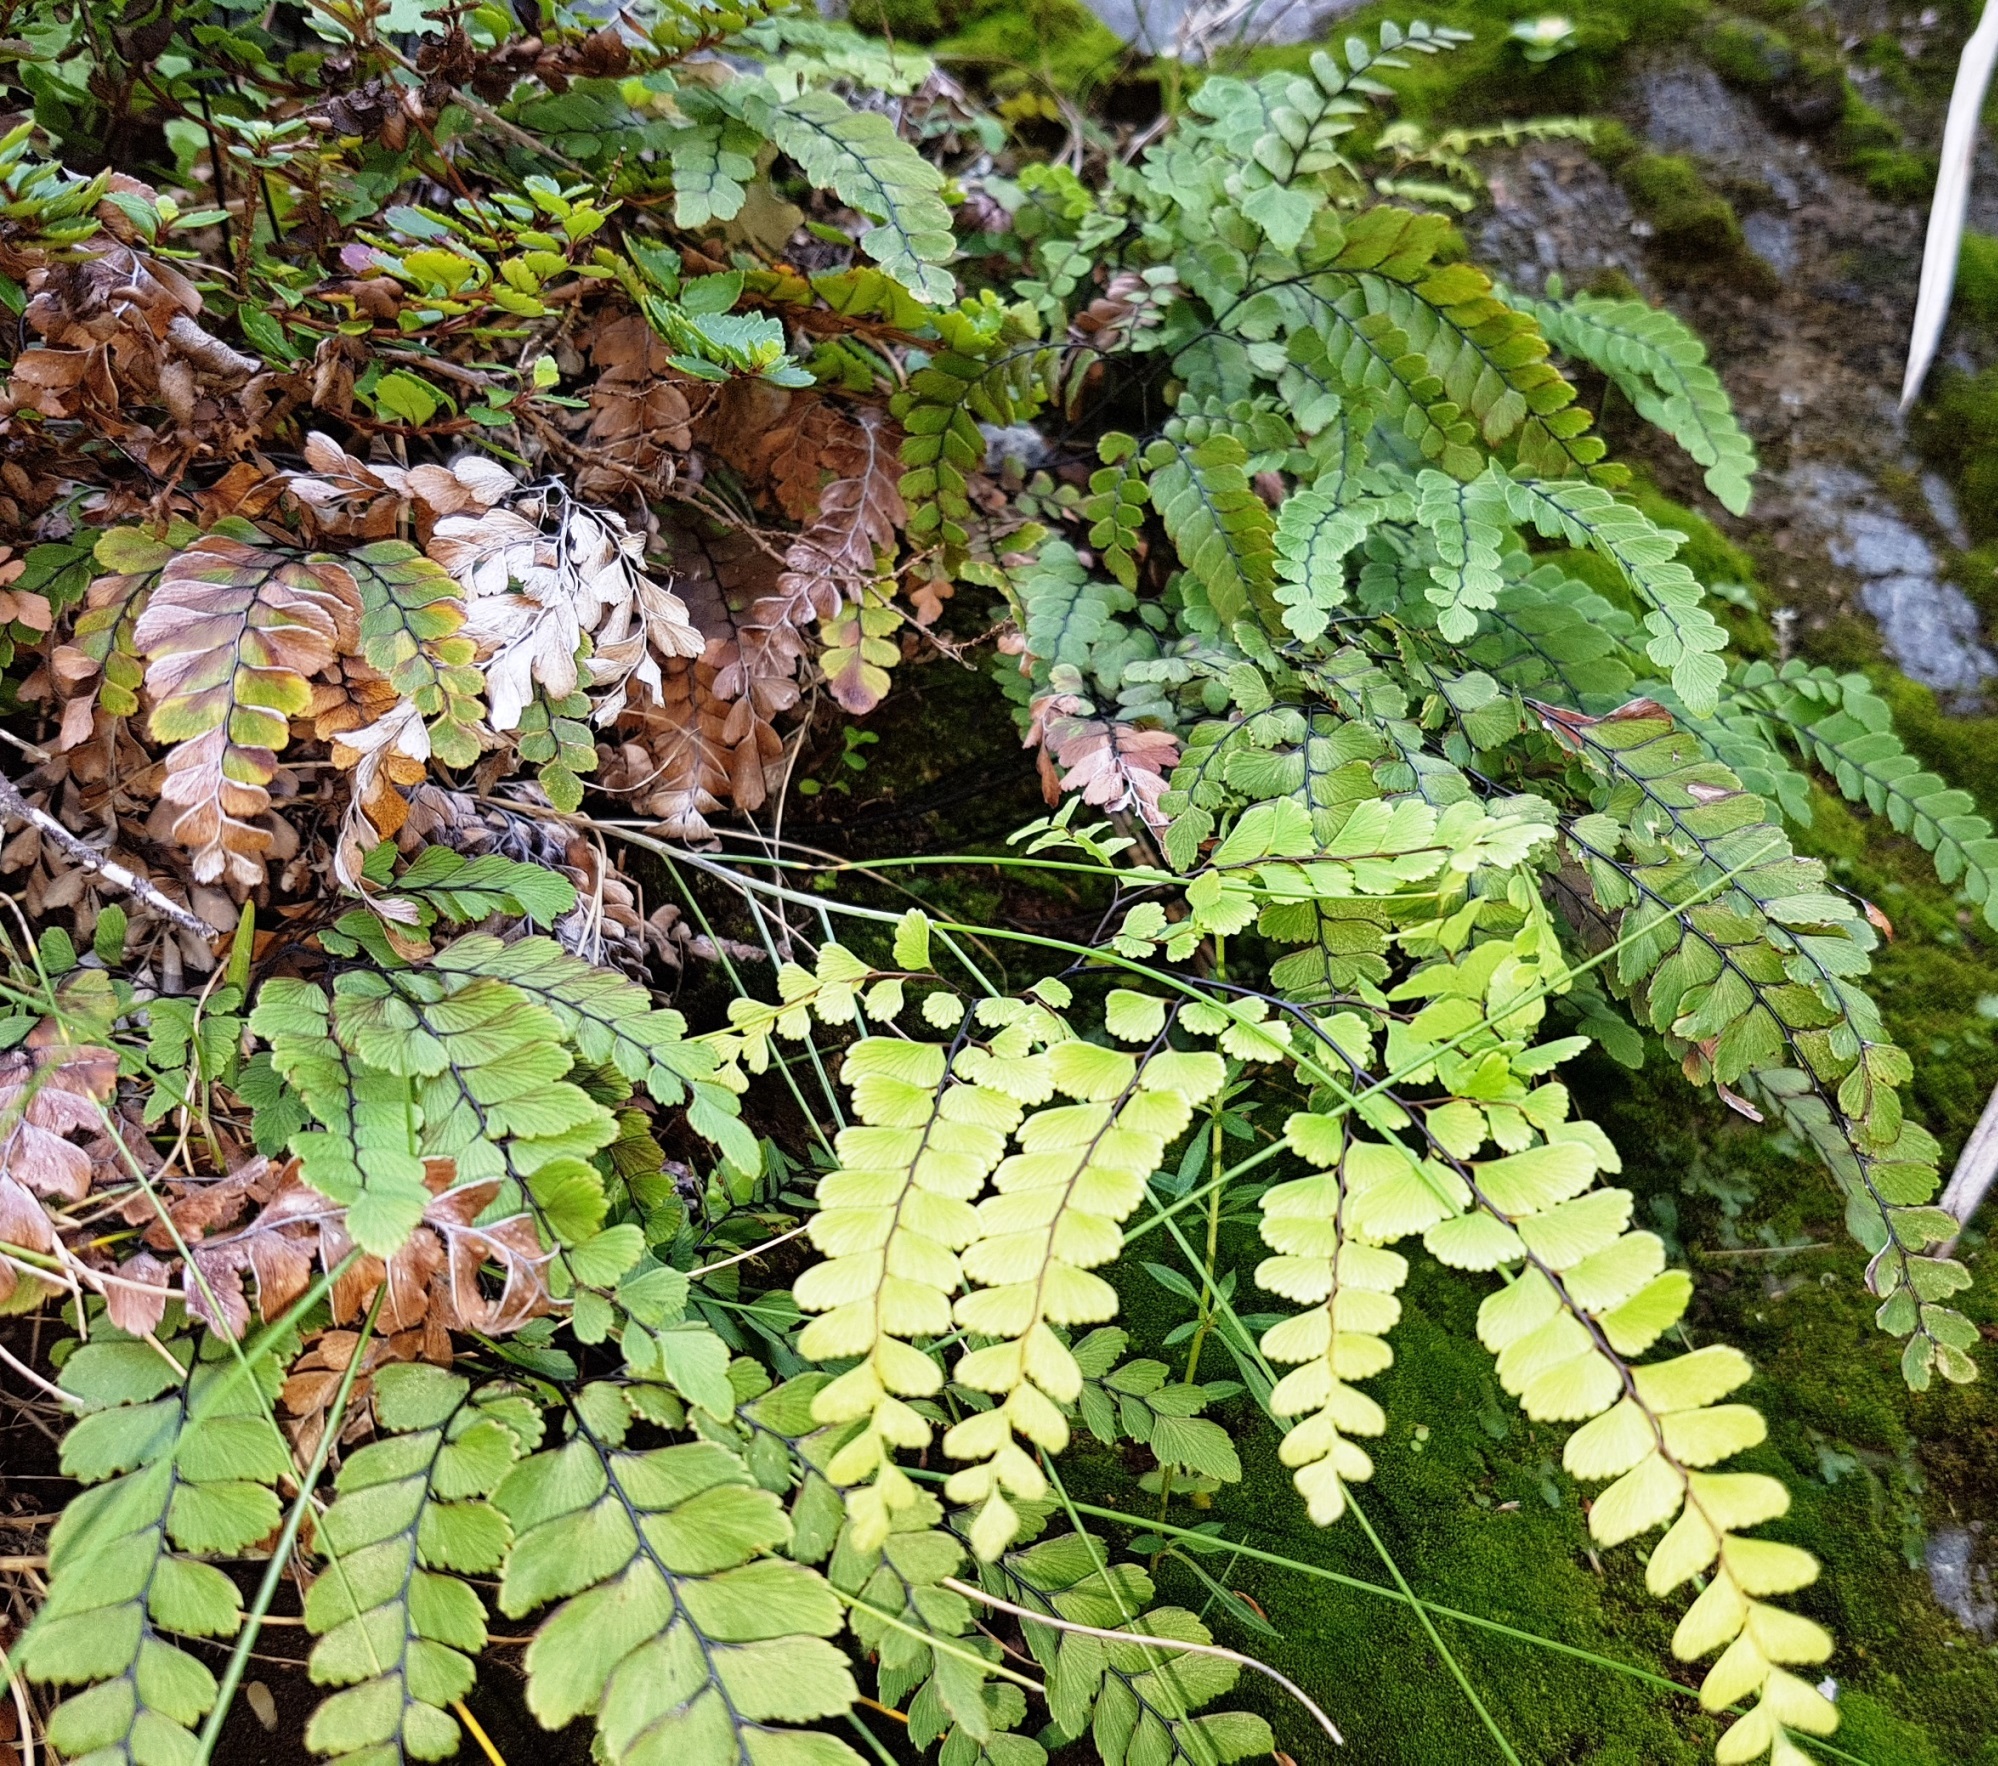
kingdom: Plantae
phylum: Tracheophyta
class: Polypodiopsida
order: Polypodiales
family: Pteridaceae
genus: Adiantum
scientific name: Adiantum cunninghamii
